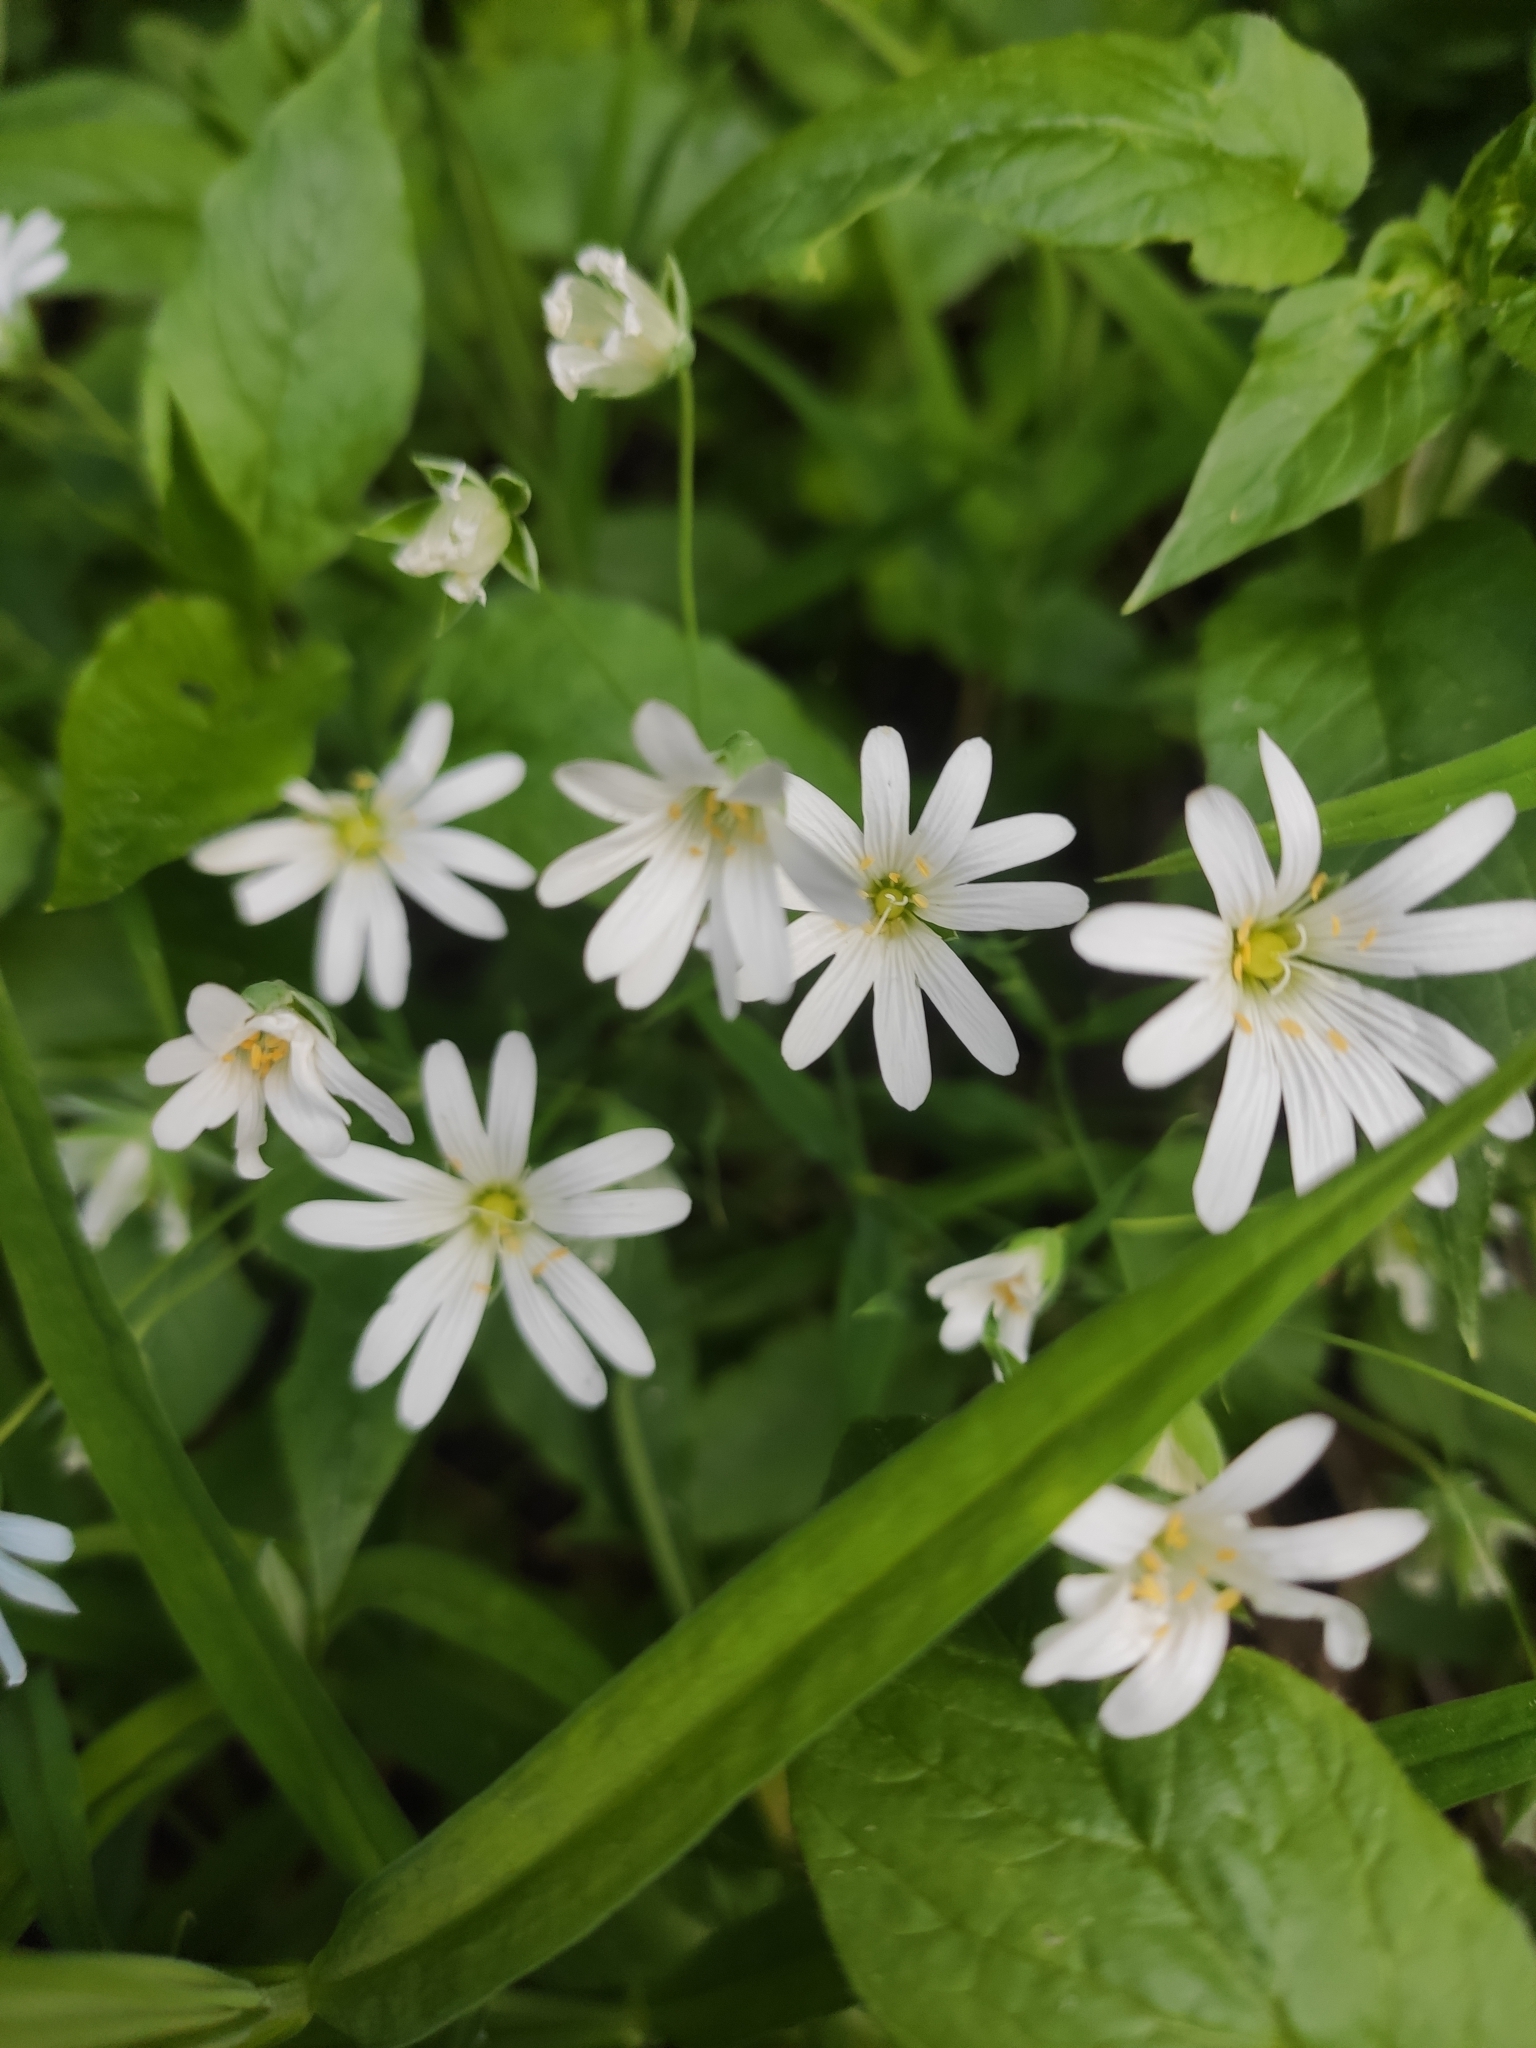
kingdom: Plantae
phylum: Tracheophyta
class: Magnoliopsida
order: Caryophyllales
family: Caryophyllaceae
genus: Rabelera
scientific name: Rabelera holostea
